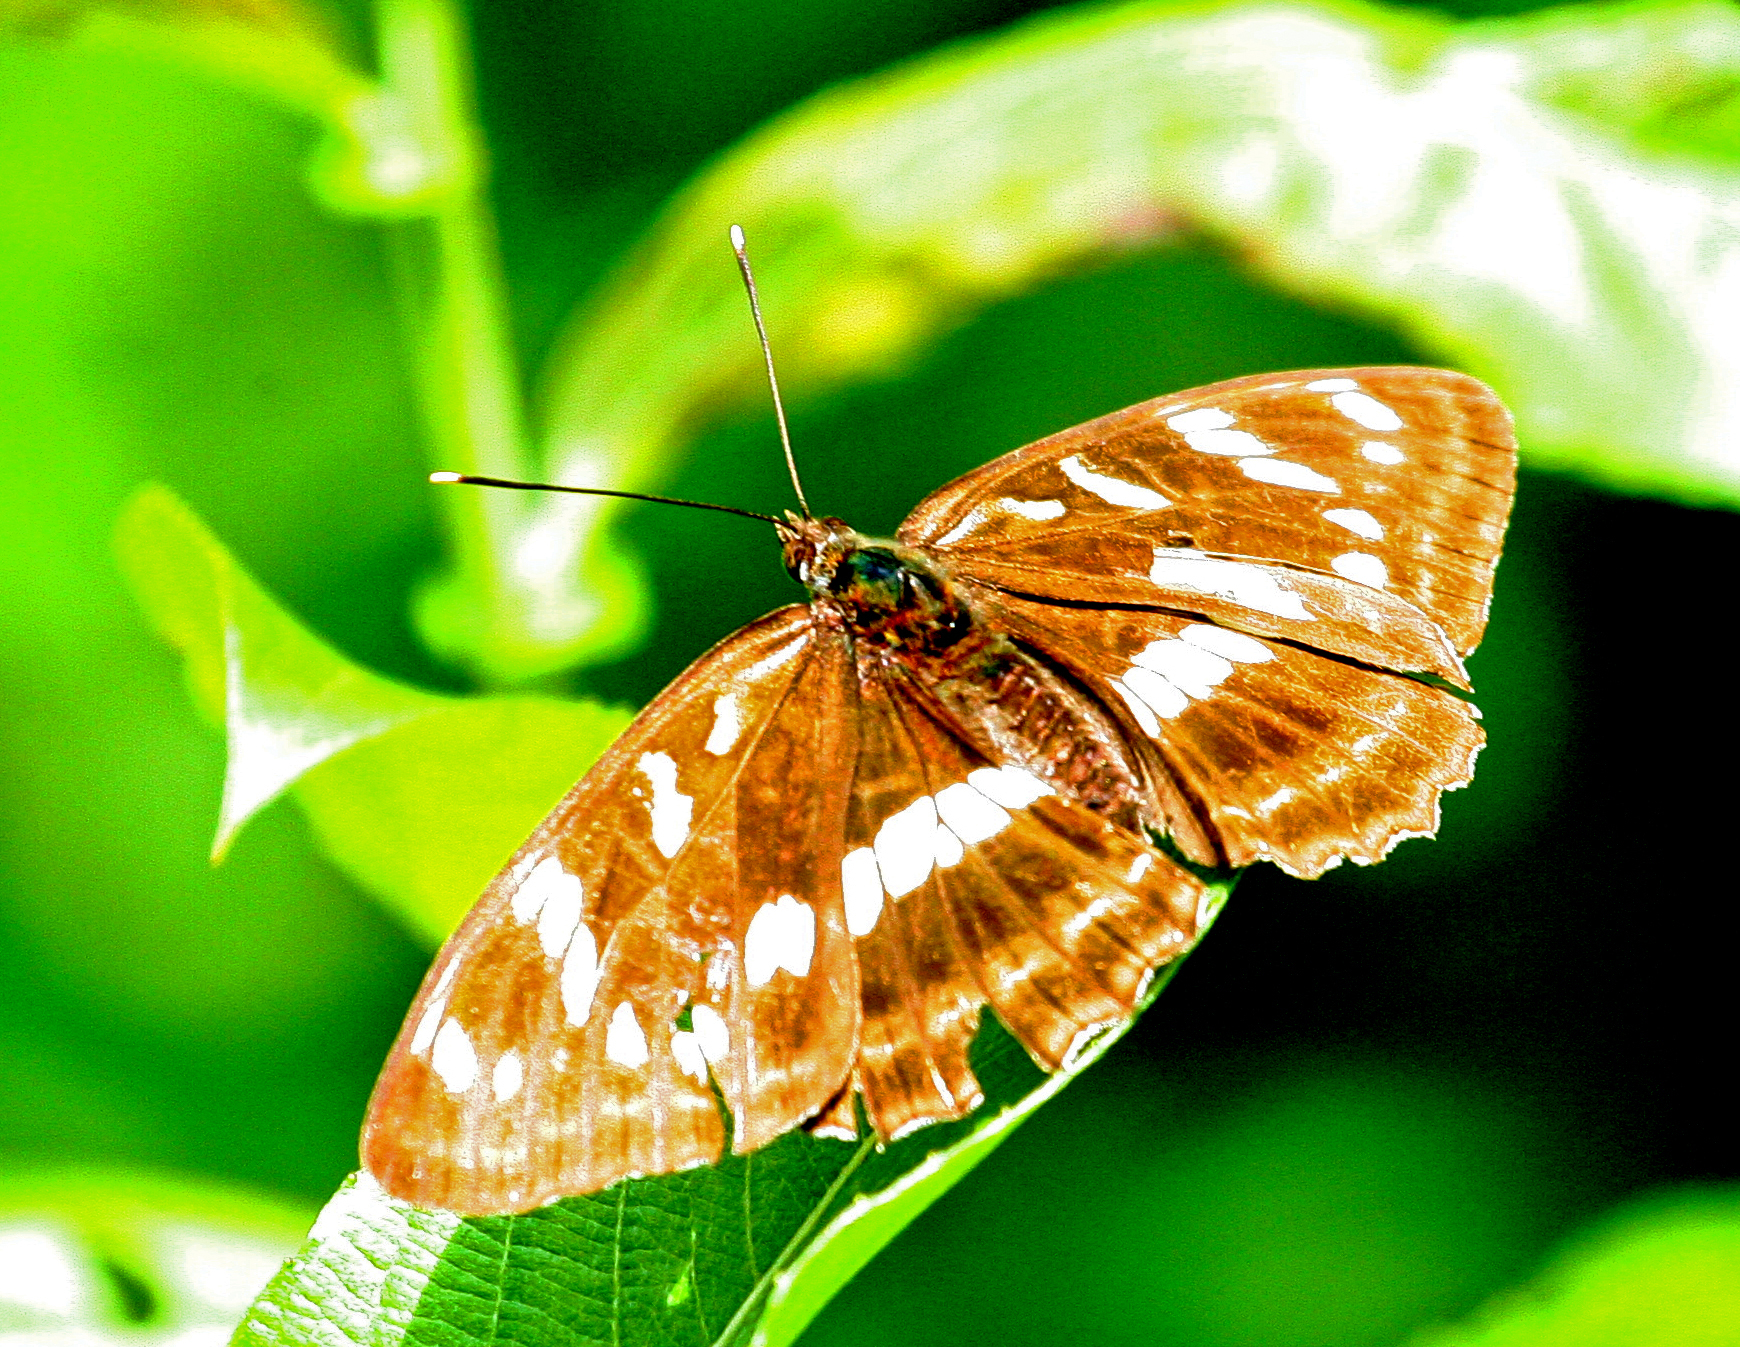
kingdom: Animalia
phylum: Arthropoda
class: Insecta
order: Lepidoptera
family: Nymphalidae
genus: Limenitis
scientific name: Limenitis amphyssa
